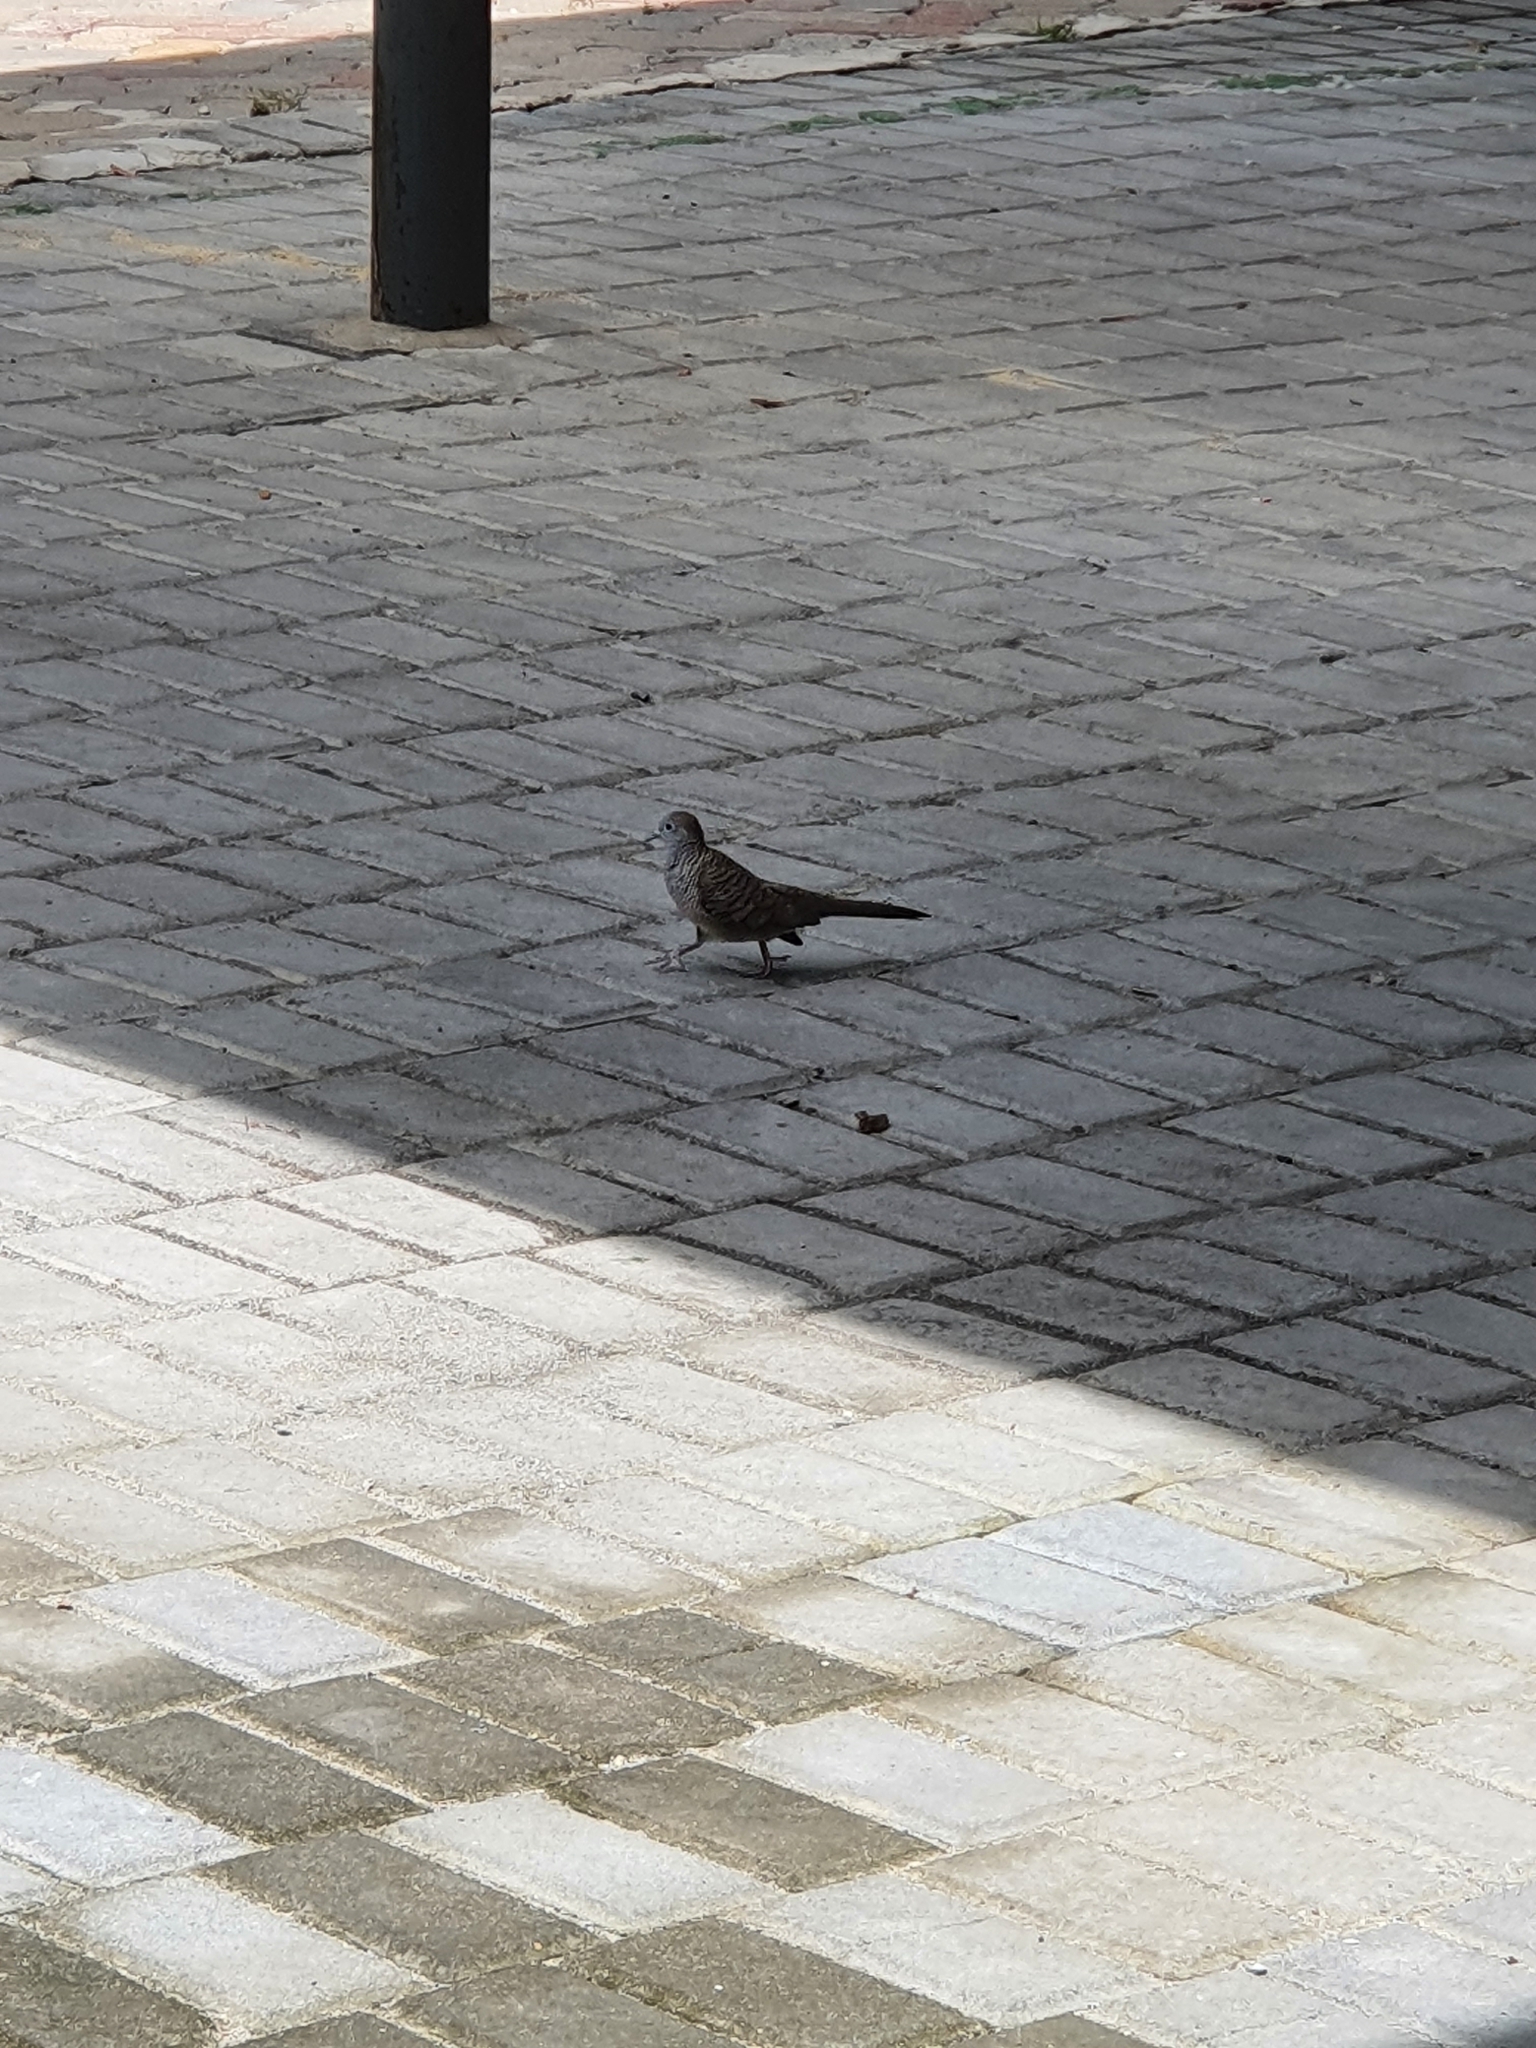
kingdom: Animalia
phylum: Chordata
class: Aves
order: Columbiformes
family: Columbidae
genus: Geopelia
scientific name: Geopelia striata
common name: Zebra dove
